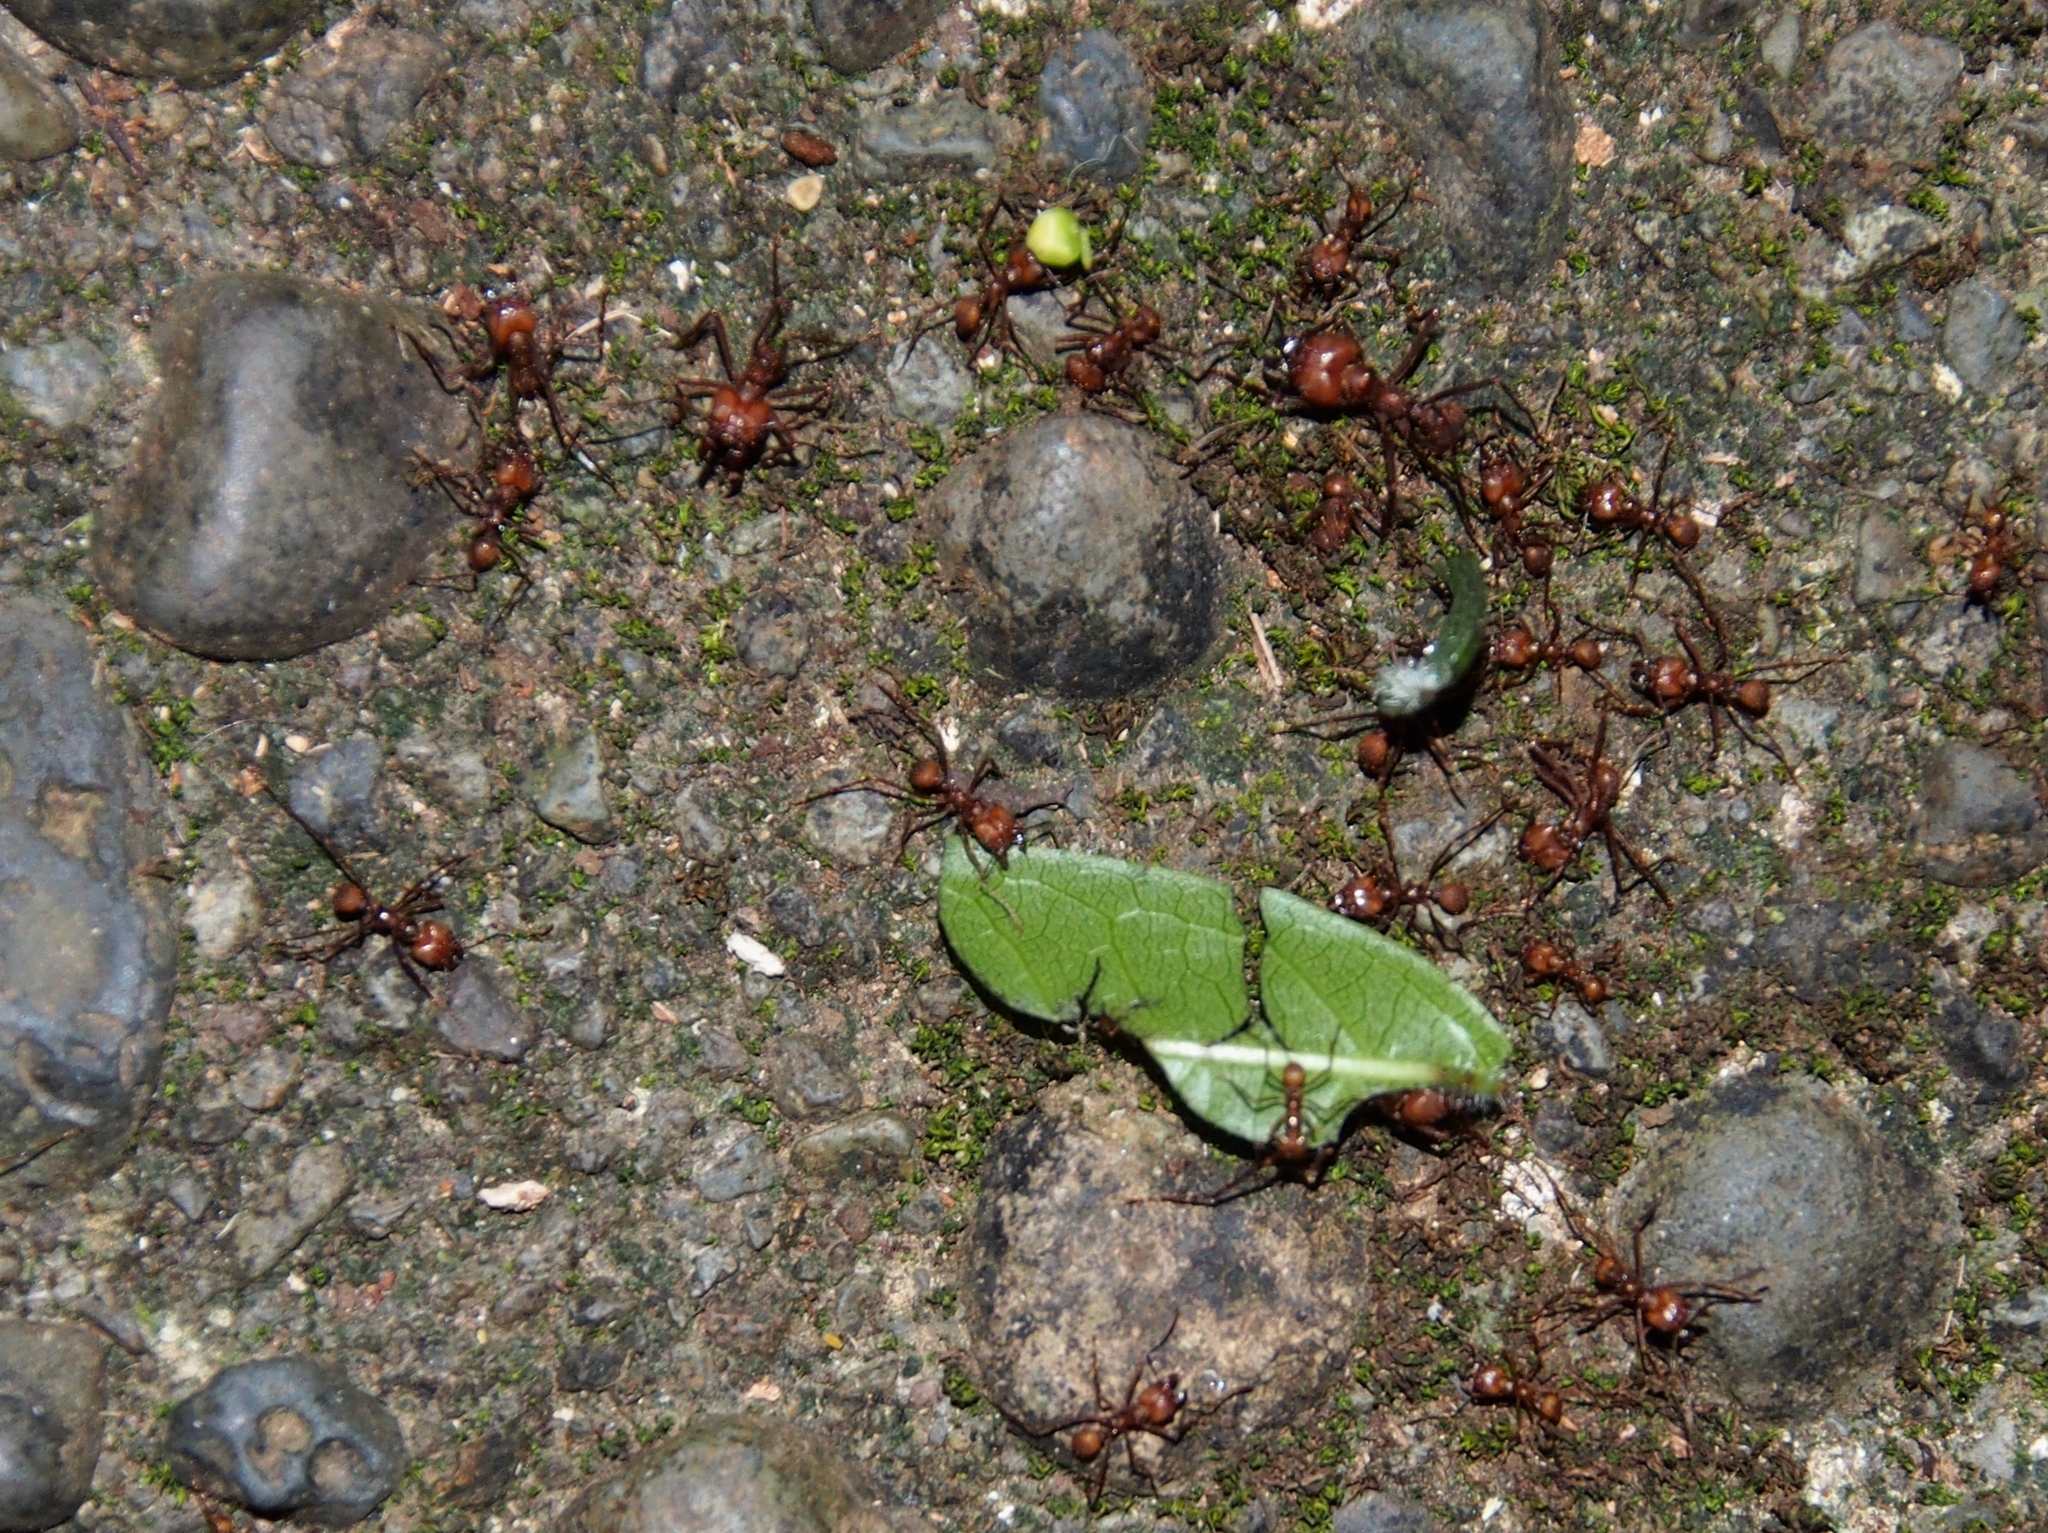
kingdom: Animalia
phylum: Arthropoda
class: Insecta
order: Hymenoptera
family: Formicidae
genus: Atta
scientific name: Atta cephalotes
